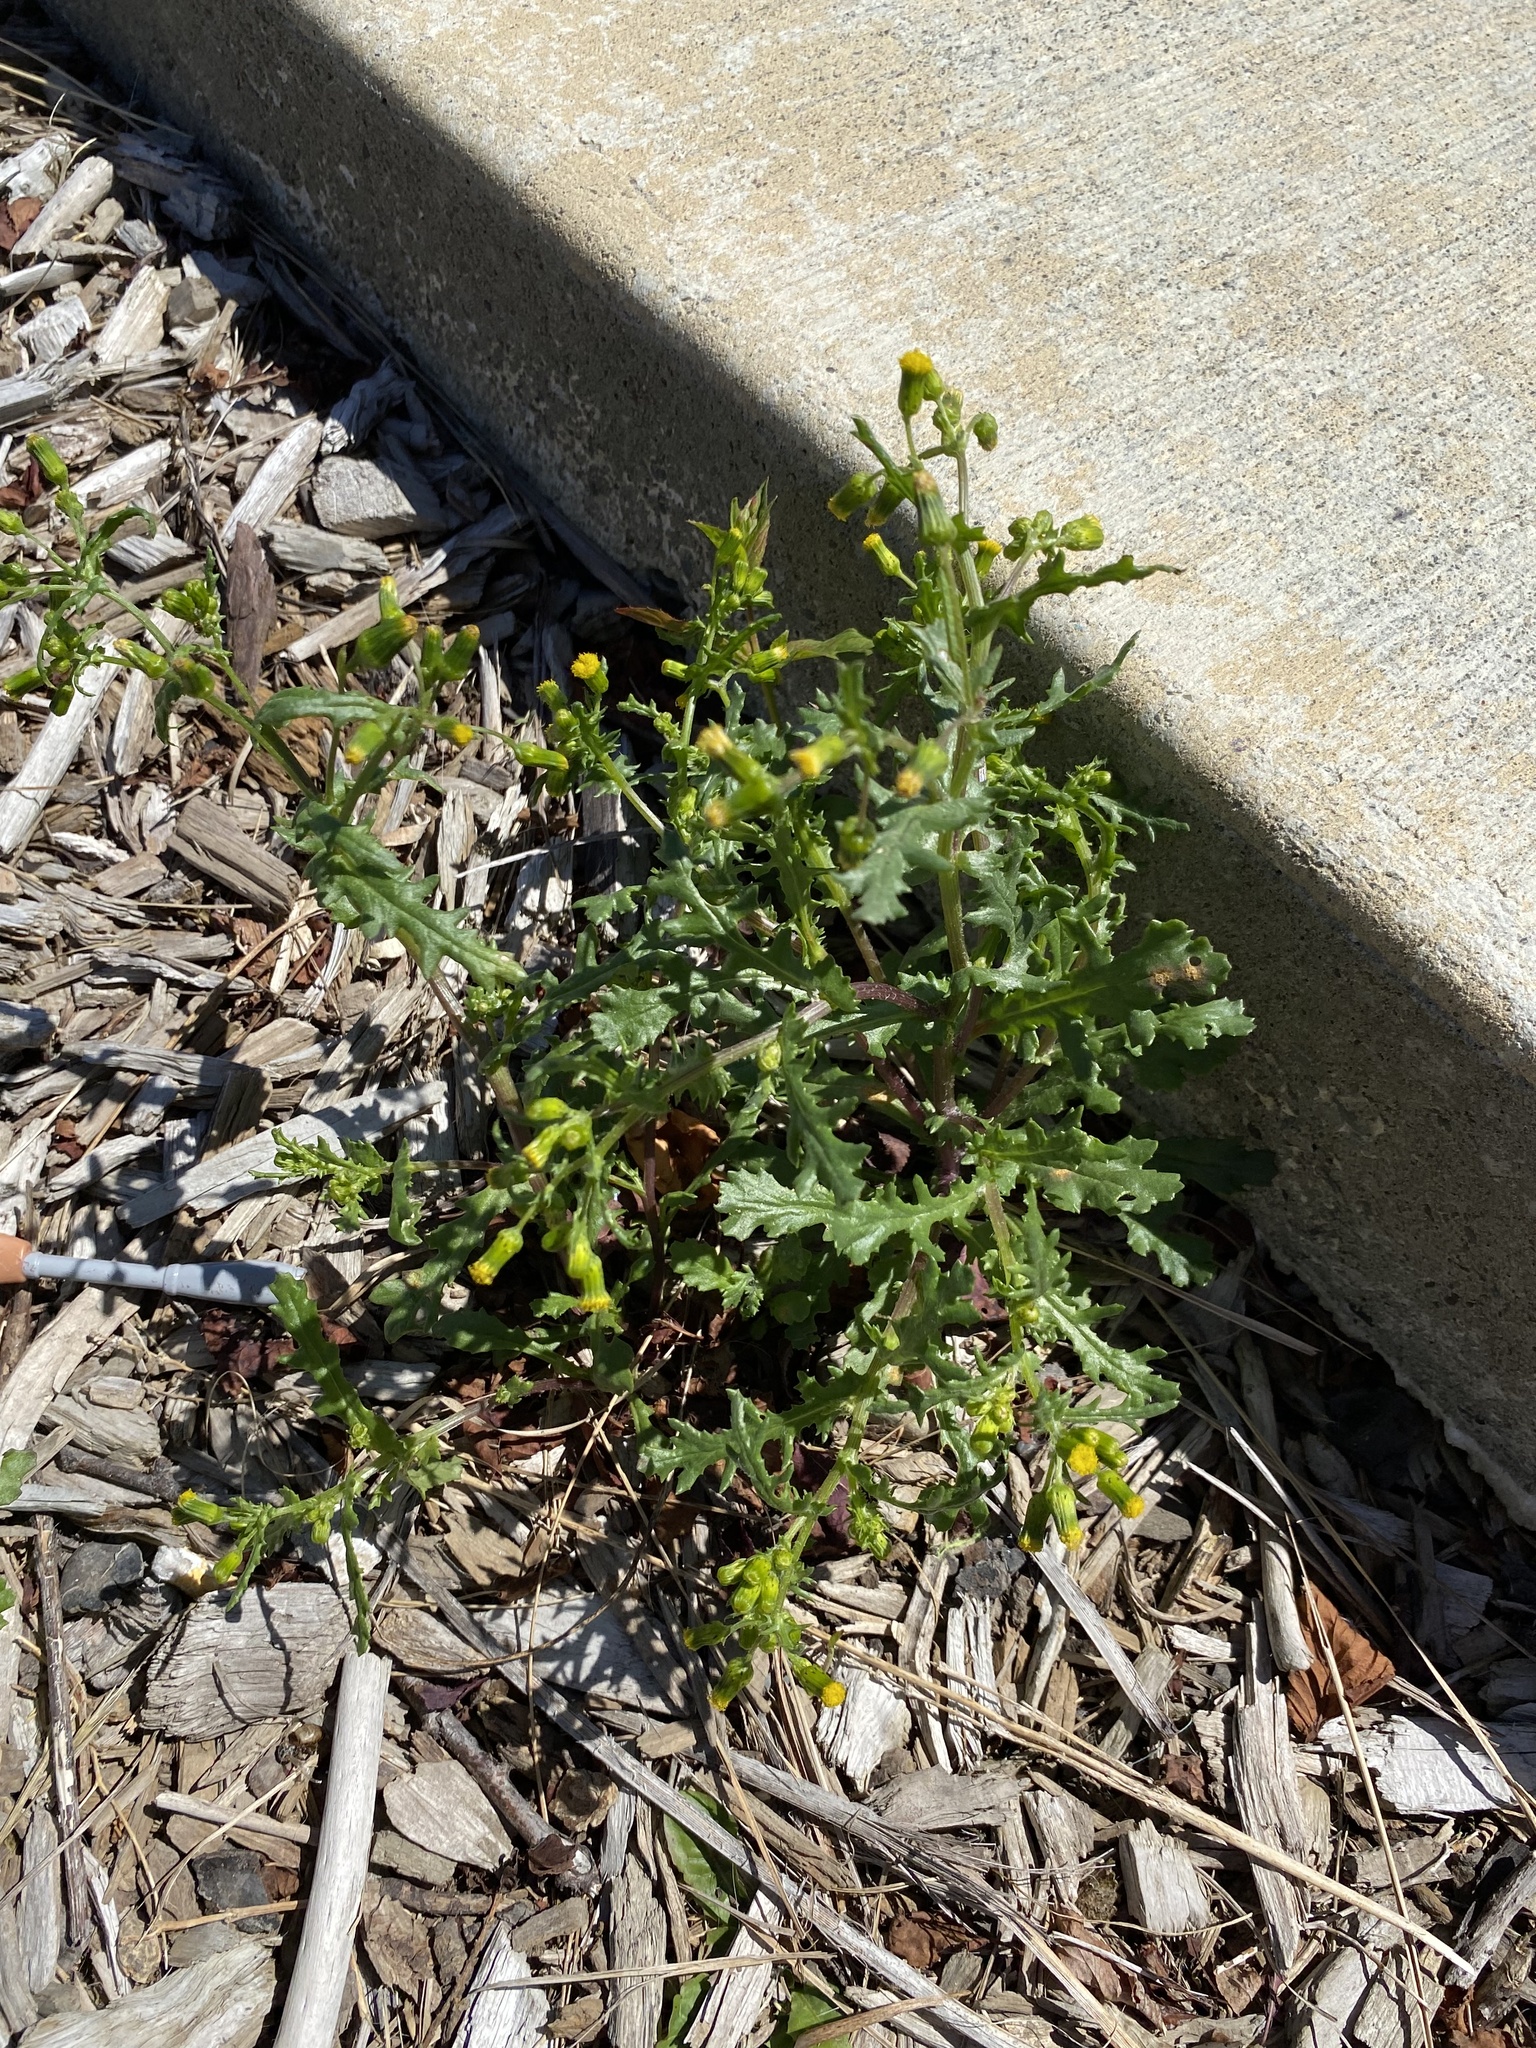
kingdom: Plantae
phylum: Tracheophyta
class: Magnoliopsida
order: Asterales
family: Asteraceae
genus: Senecio
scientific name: Senecio vulgaris
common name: Old-man-in-the-spring
